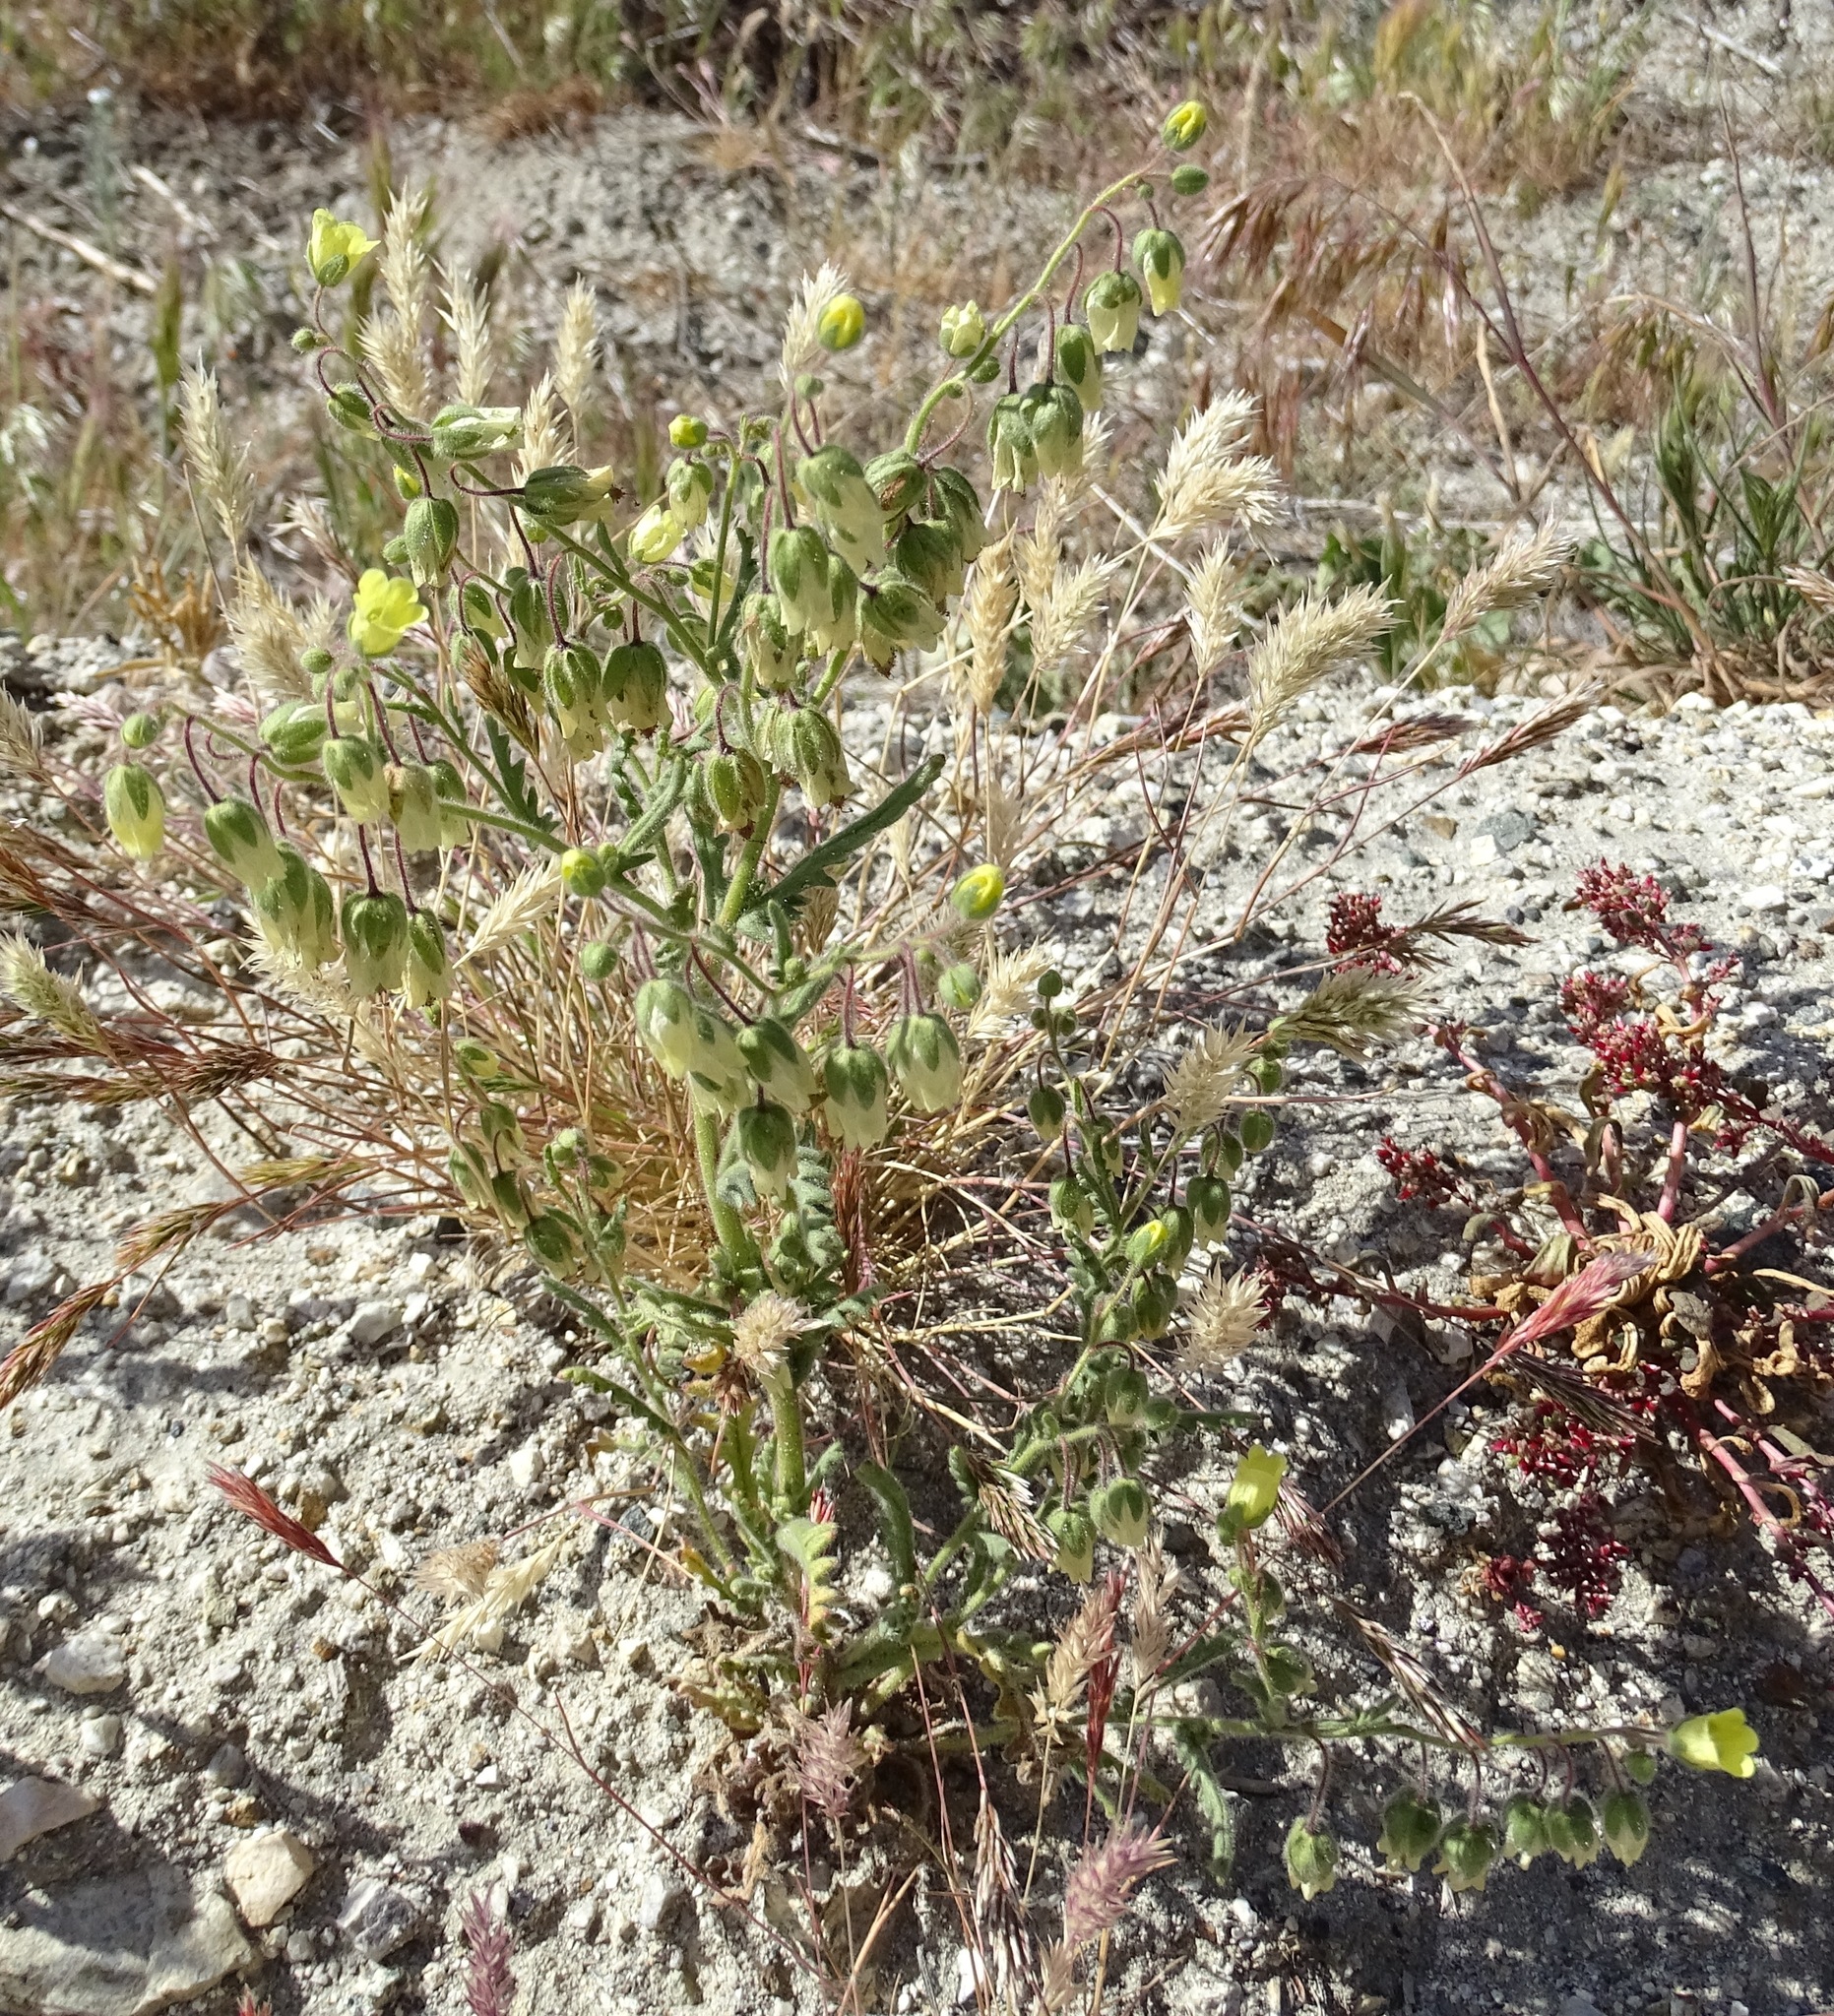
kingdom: Plantae
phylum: Tracheophyta
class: Magnoliopsida
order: Boraginales
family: Hydrophyllaceae
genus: Emmenanthe
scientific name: Emmenanthe penduliflora
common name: Whispering-bells
